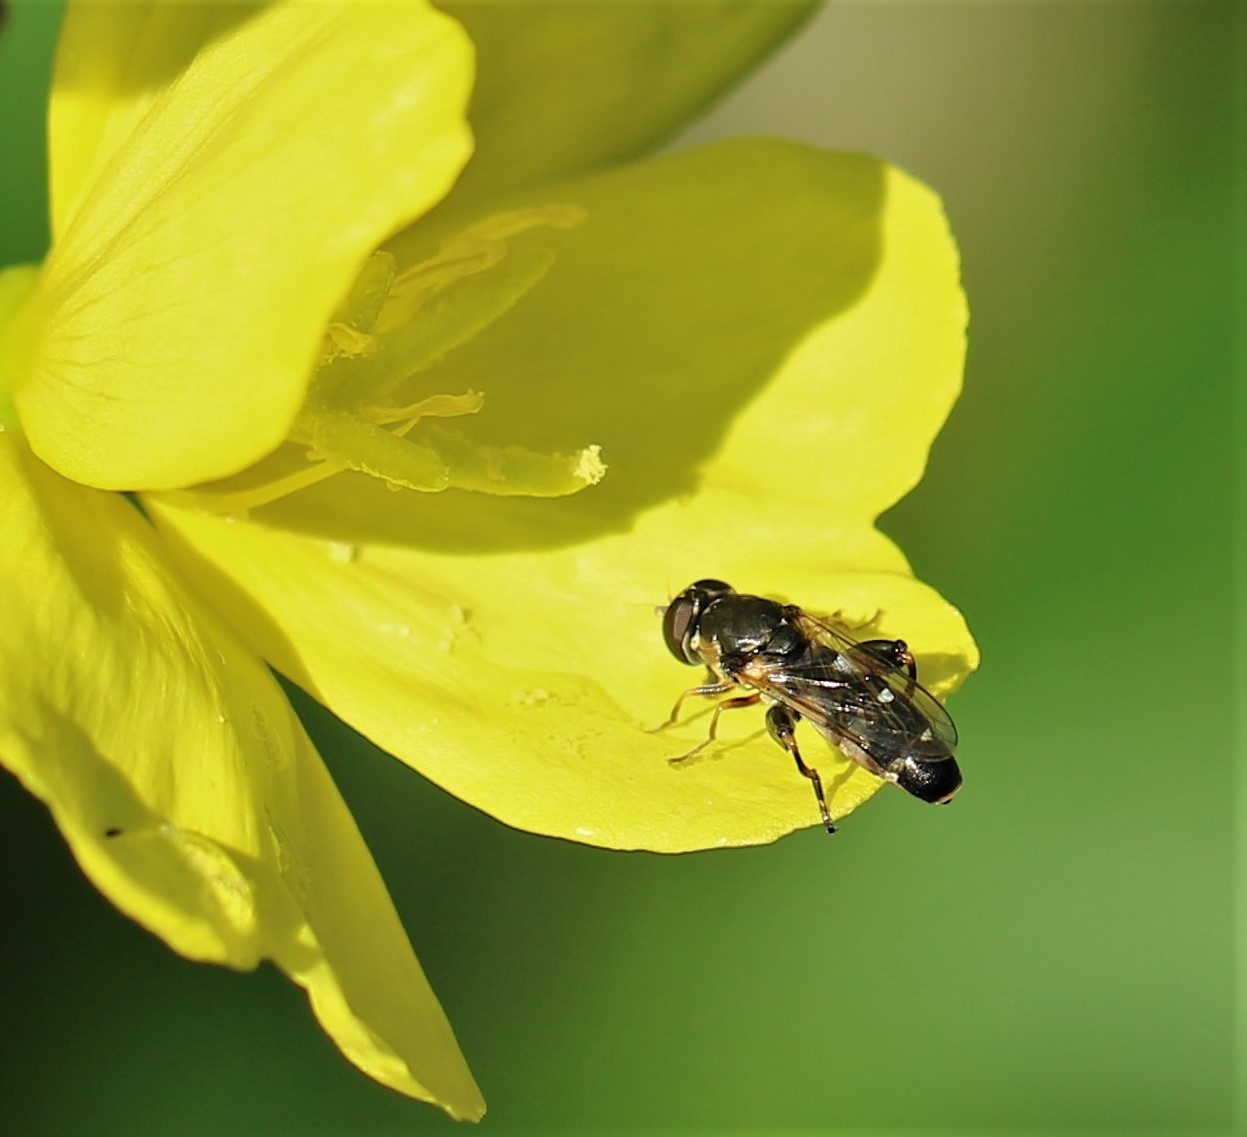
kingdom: Animalia
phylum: Arthropoda
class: Insecta
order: Diptera
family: Syrphidae
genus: Syritta
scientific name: Syritta pipiens
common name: Hover fly
